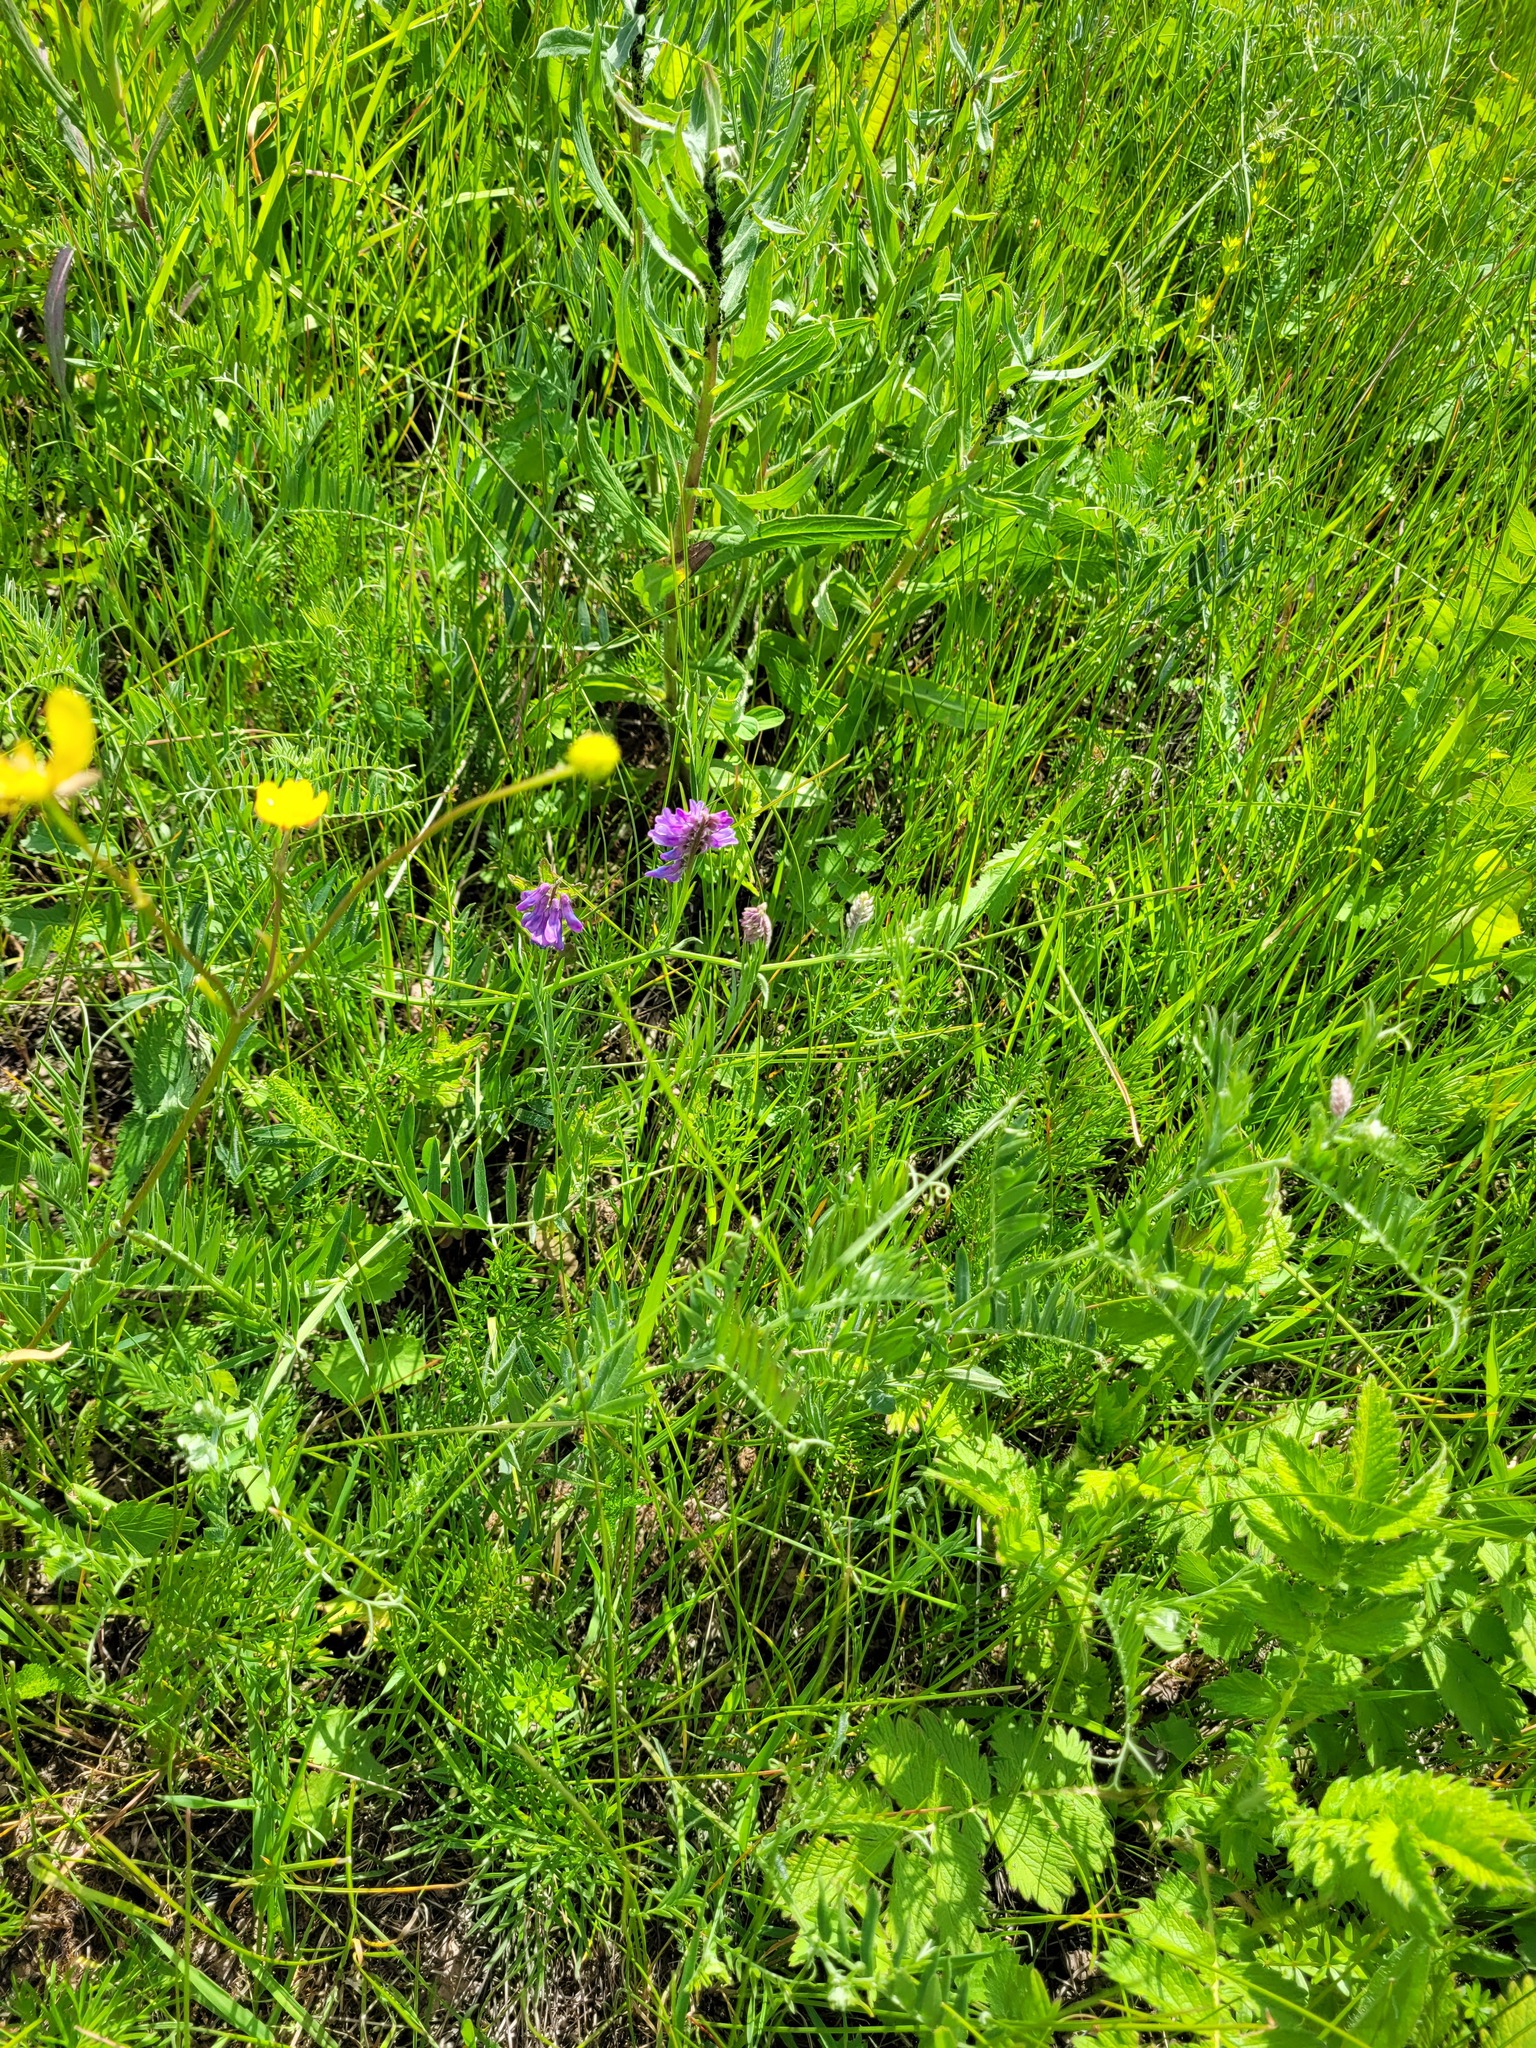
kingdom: Plantae
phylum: Tracheophyta
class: Magnoliopsida
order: Fabales
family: Fabaceae
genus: Vicia
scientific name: Vicia cracca
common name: Bird vetch
